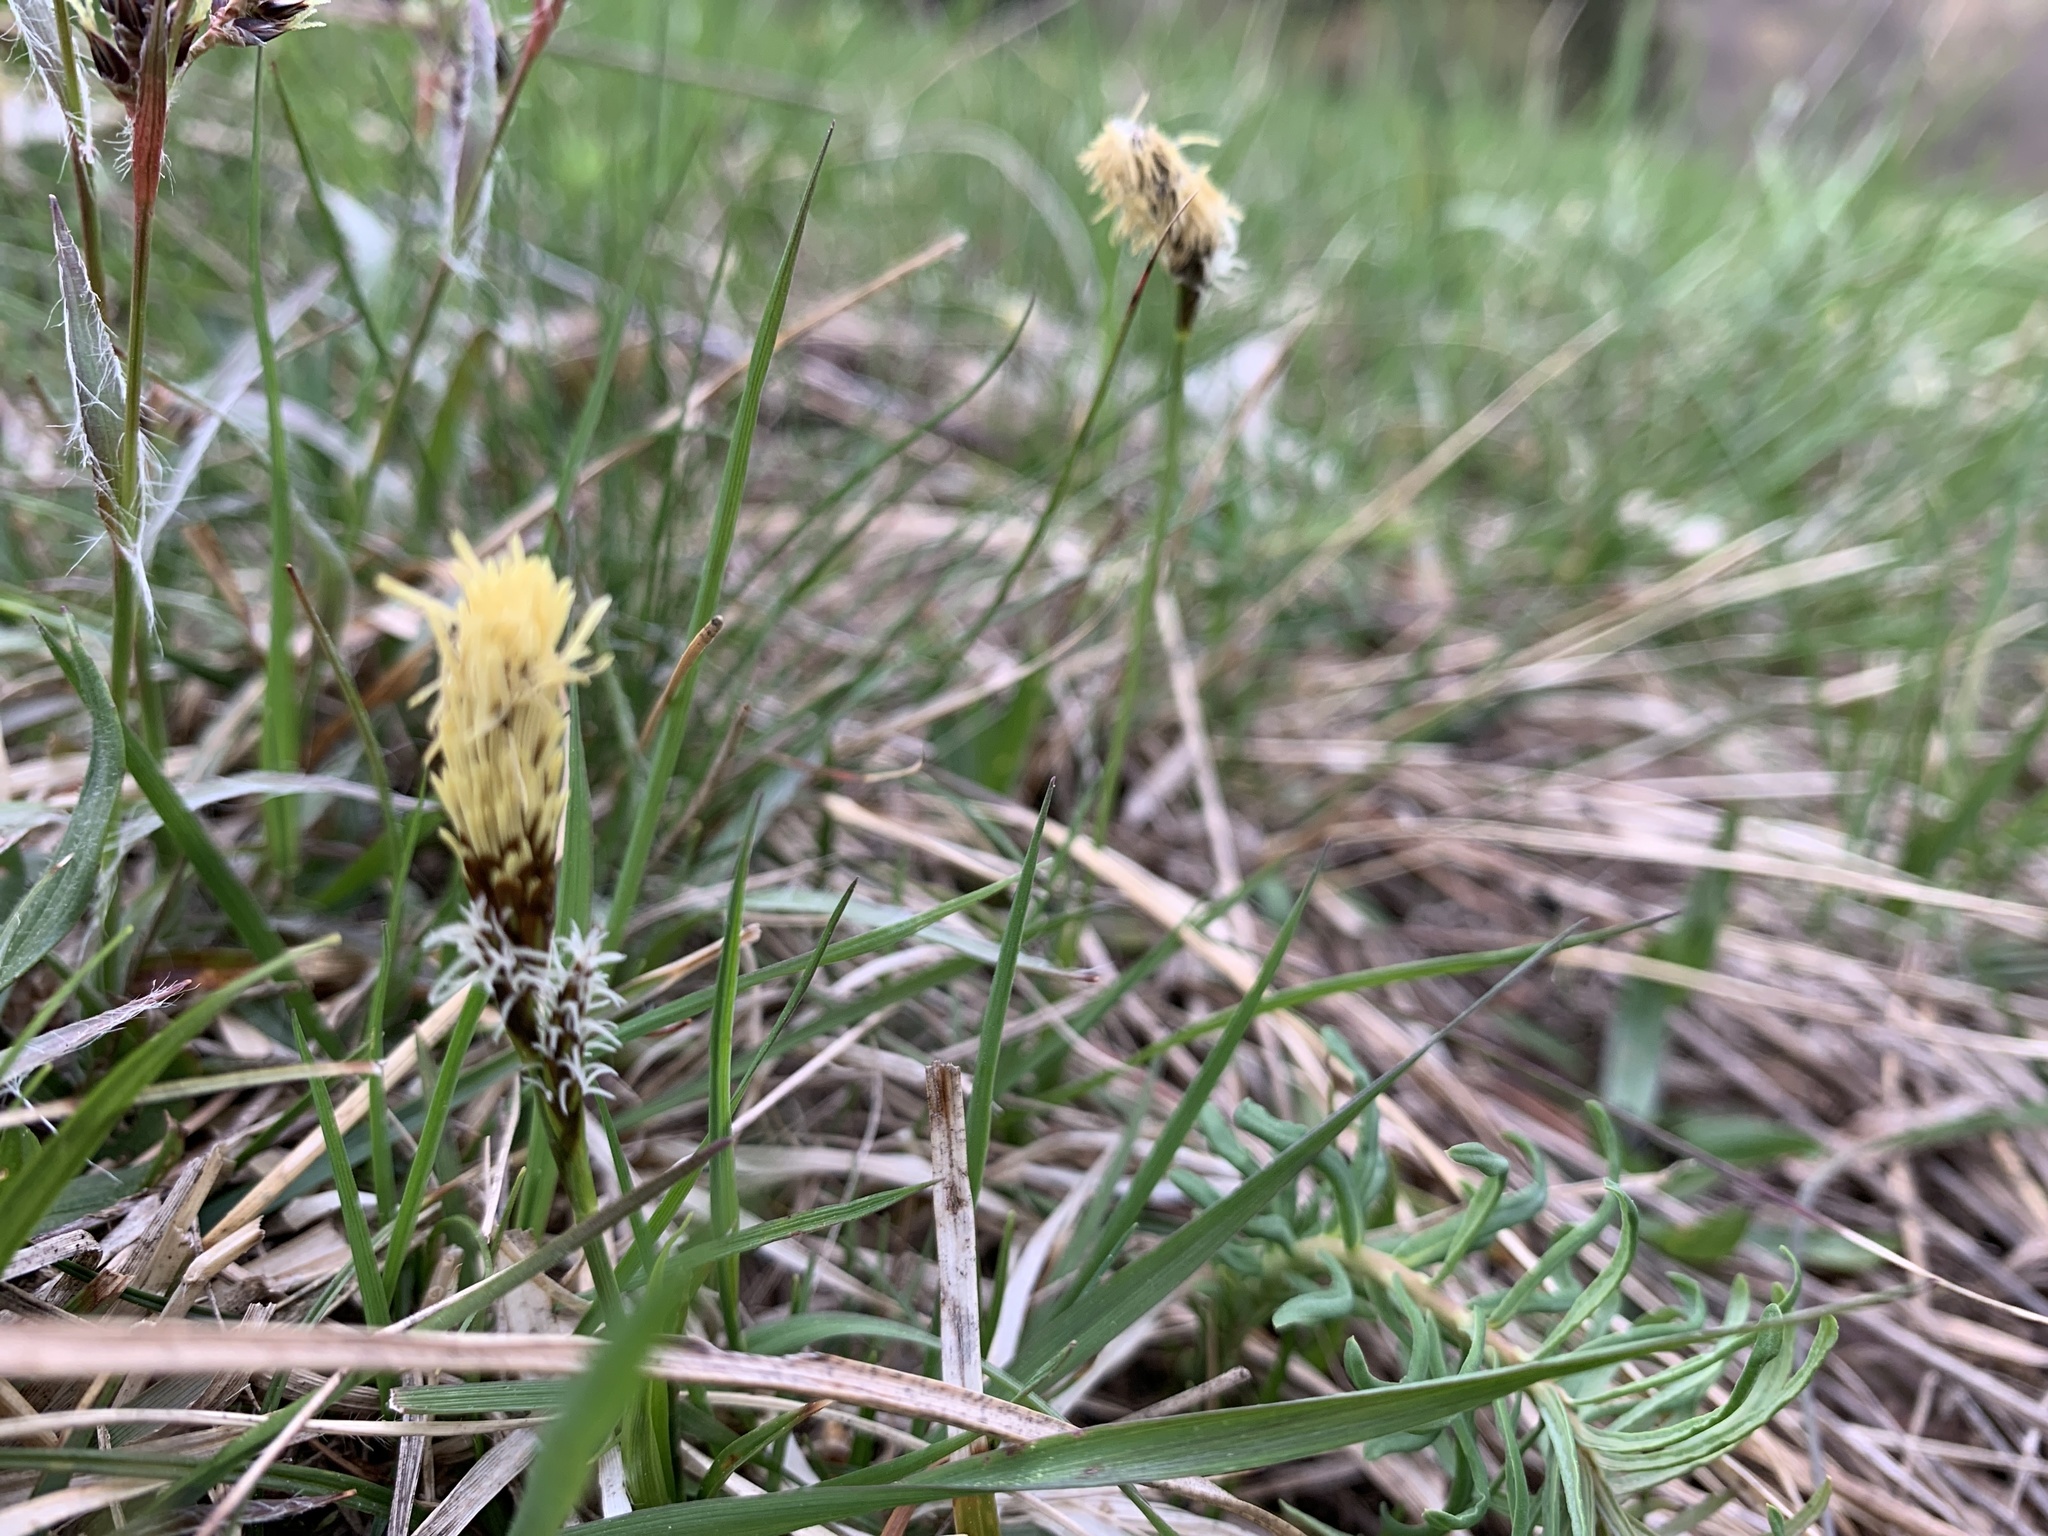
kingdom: Plantae
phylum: Tracheophyta
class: Liliopsida
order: Poales
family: Cyperaceae
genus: Carex
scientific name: Carex caryophyllea
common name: Spring sedge
